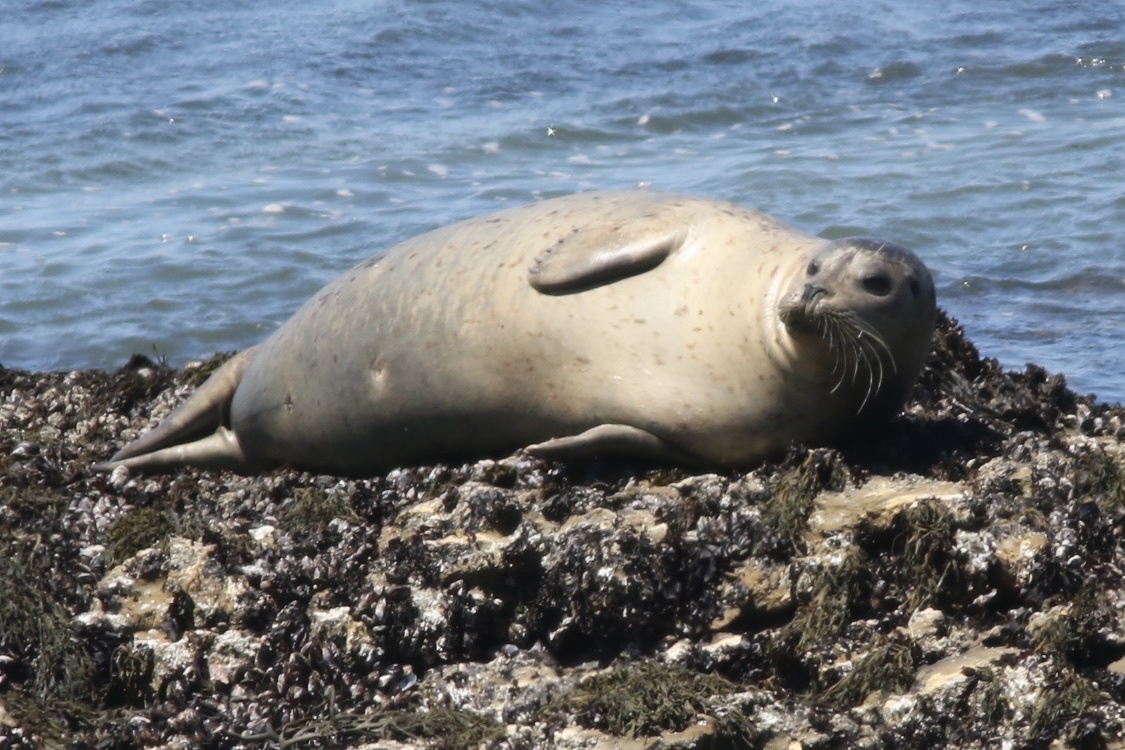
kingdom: Animalia
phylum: Chordata
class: Mammalia
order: Carnivora
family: Phocidae
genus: Phoca
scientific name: Phoca vitulina
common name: Harbor seal
